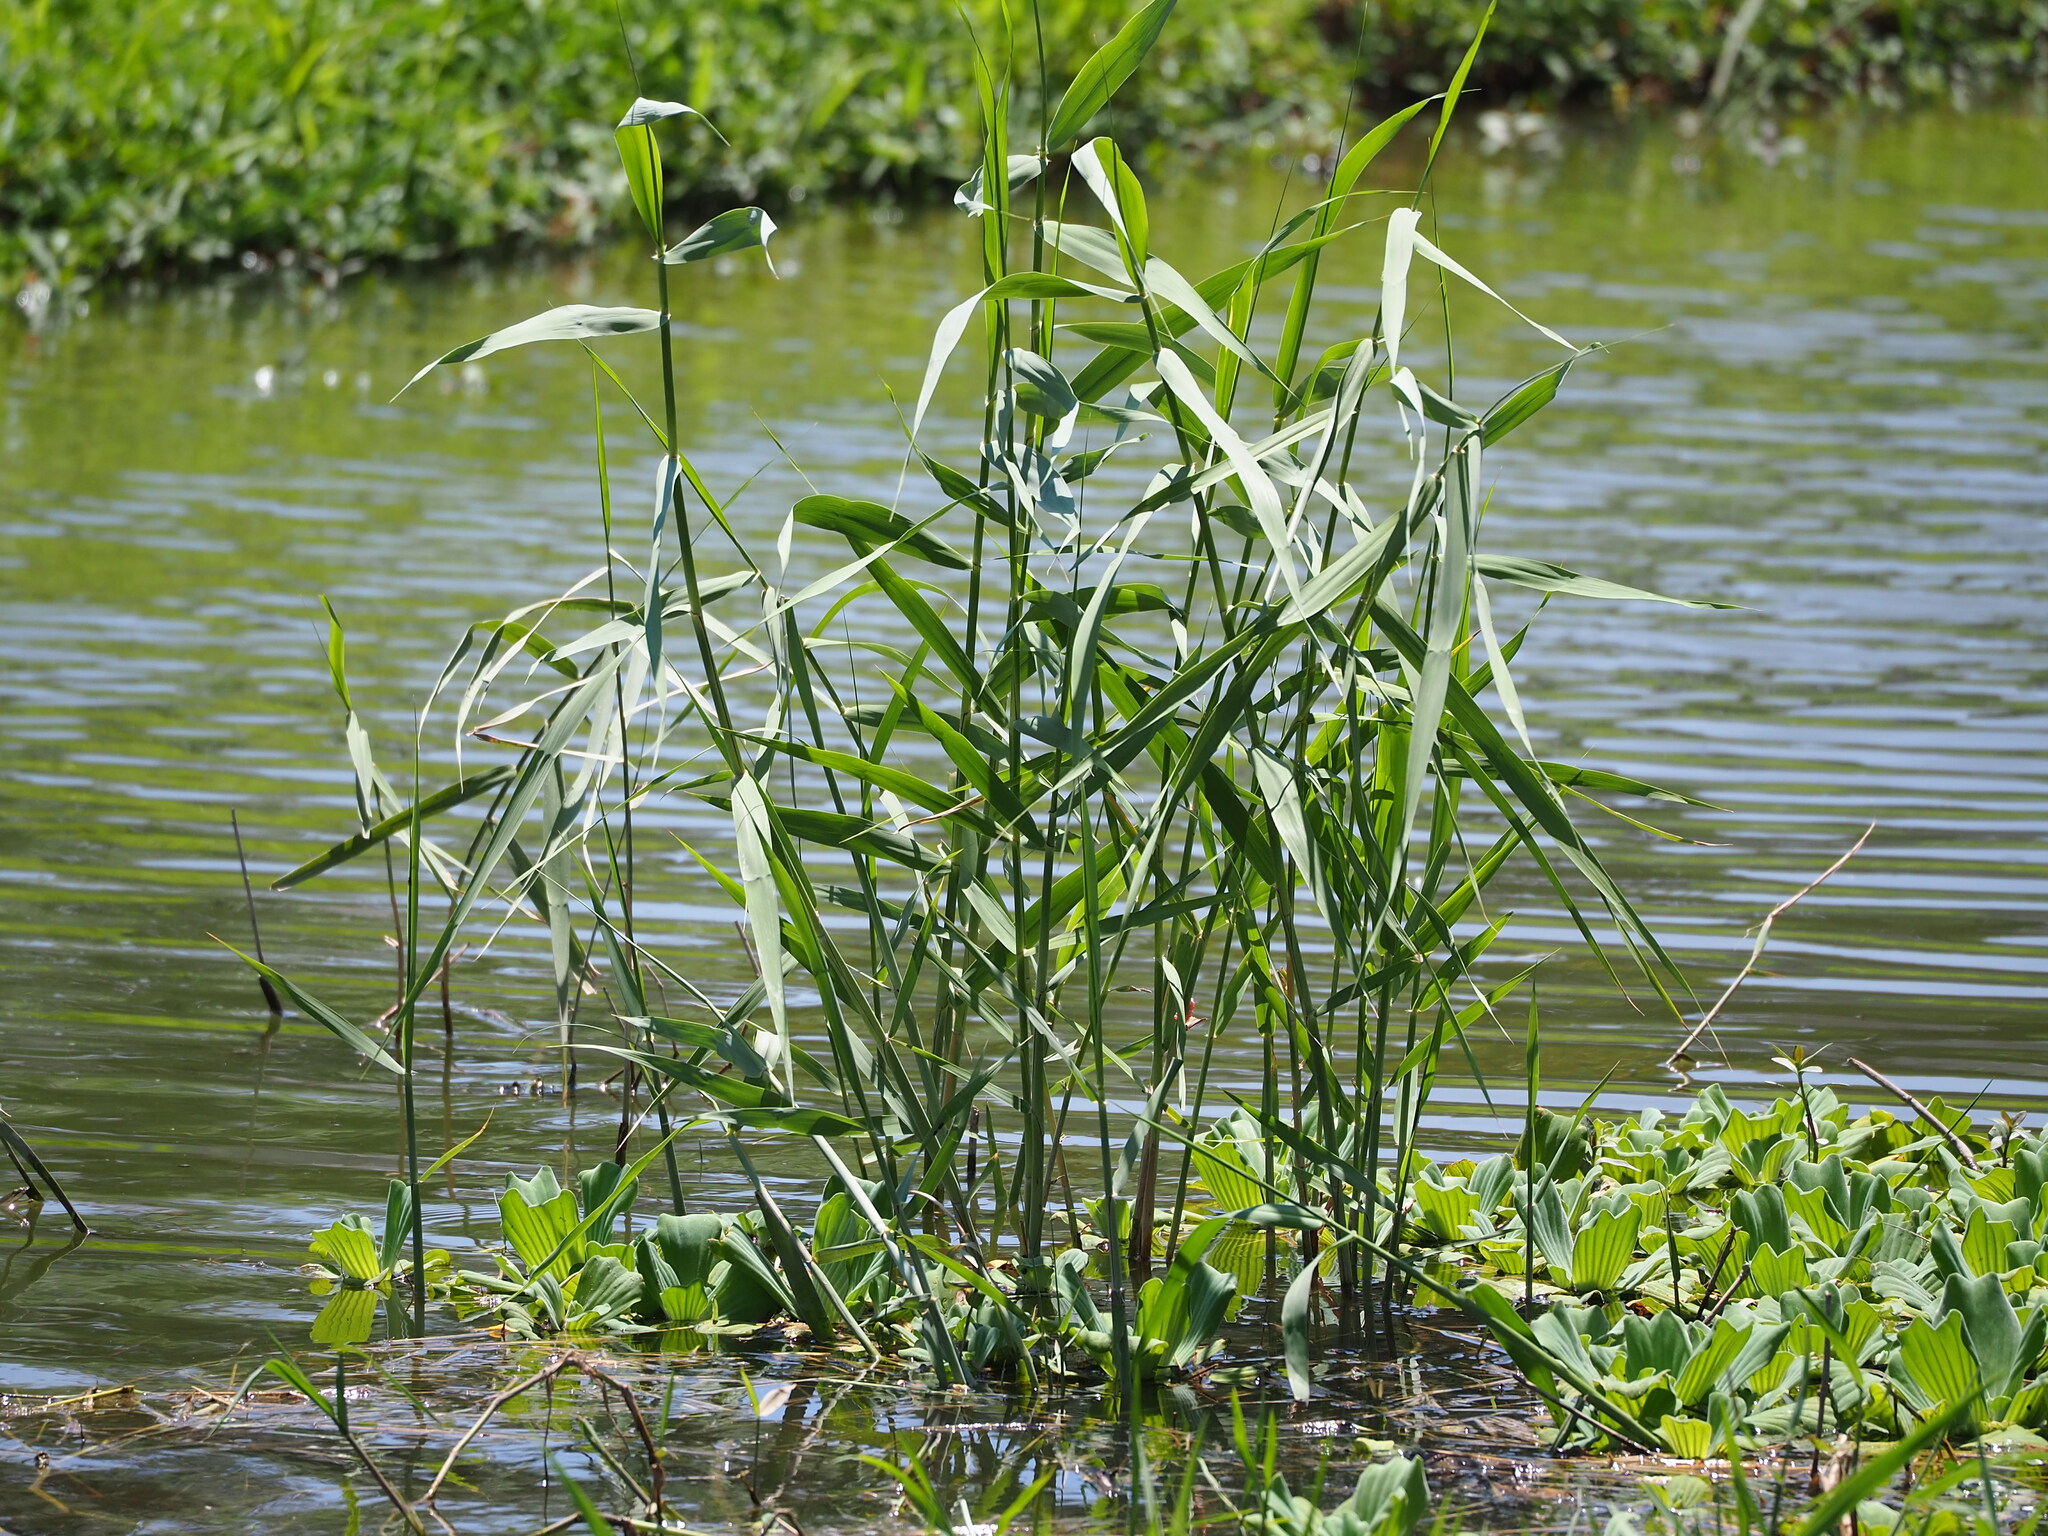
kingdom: Plantae
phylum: Tracheophyta
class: Liliopsida
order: Poales
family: Poaceae
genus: Phragmites
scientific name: Phragmites australis
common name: Common reed
